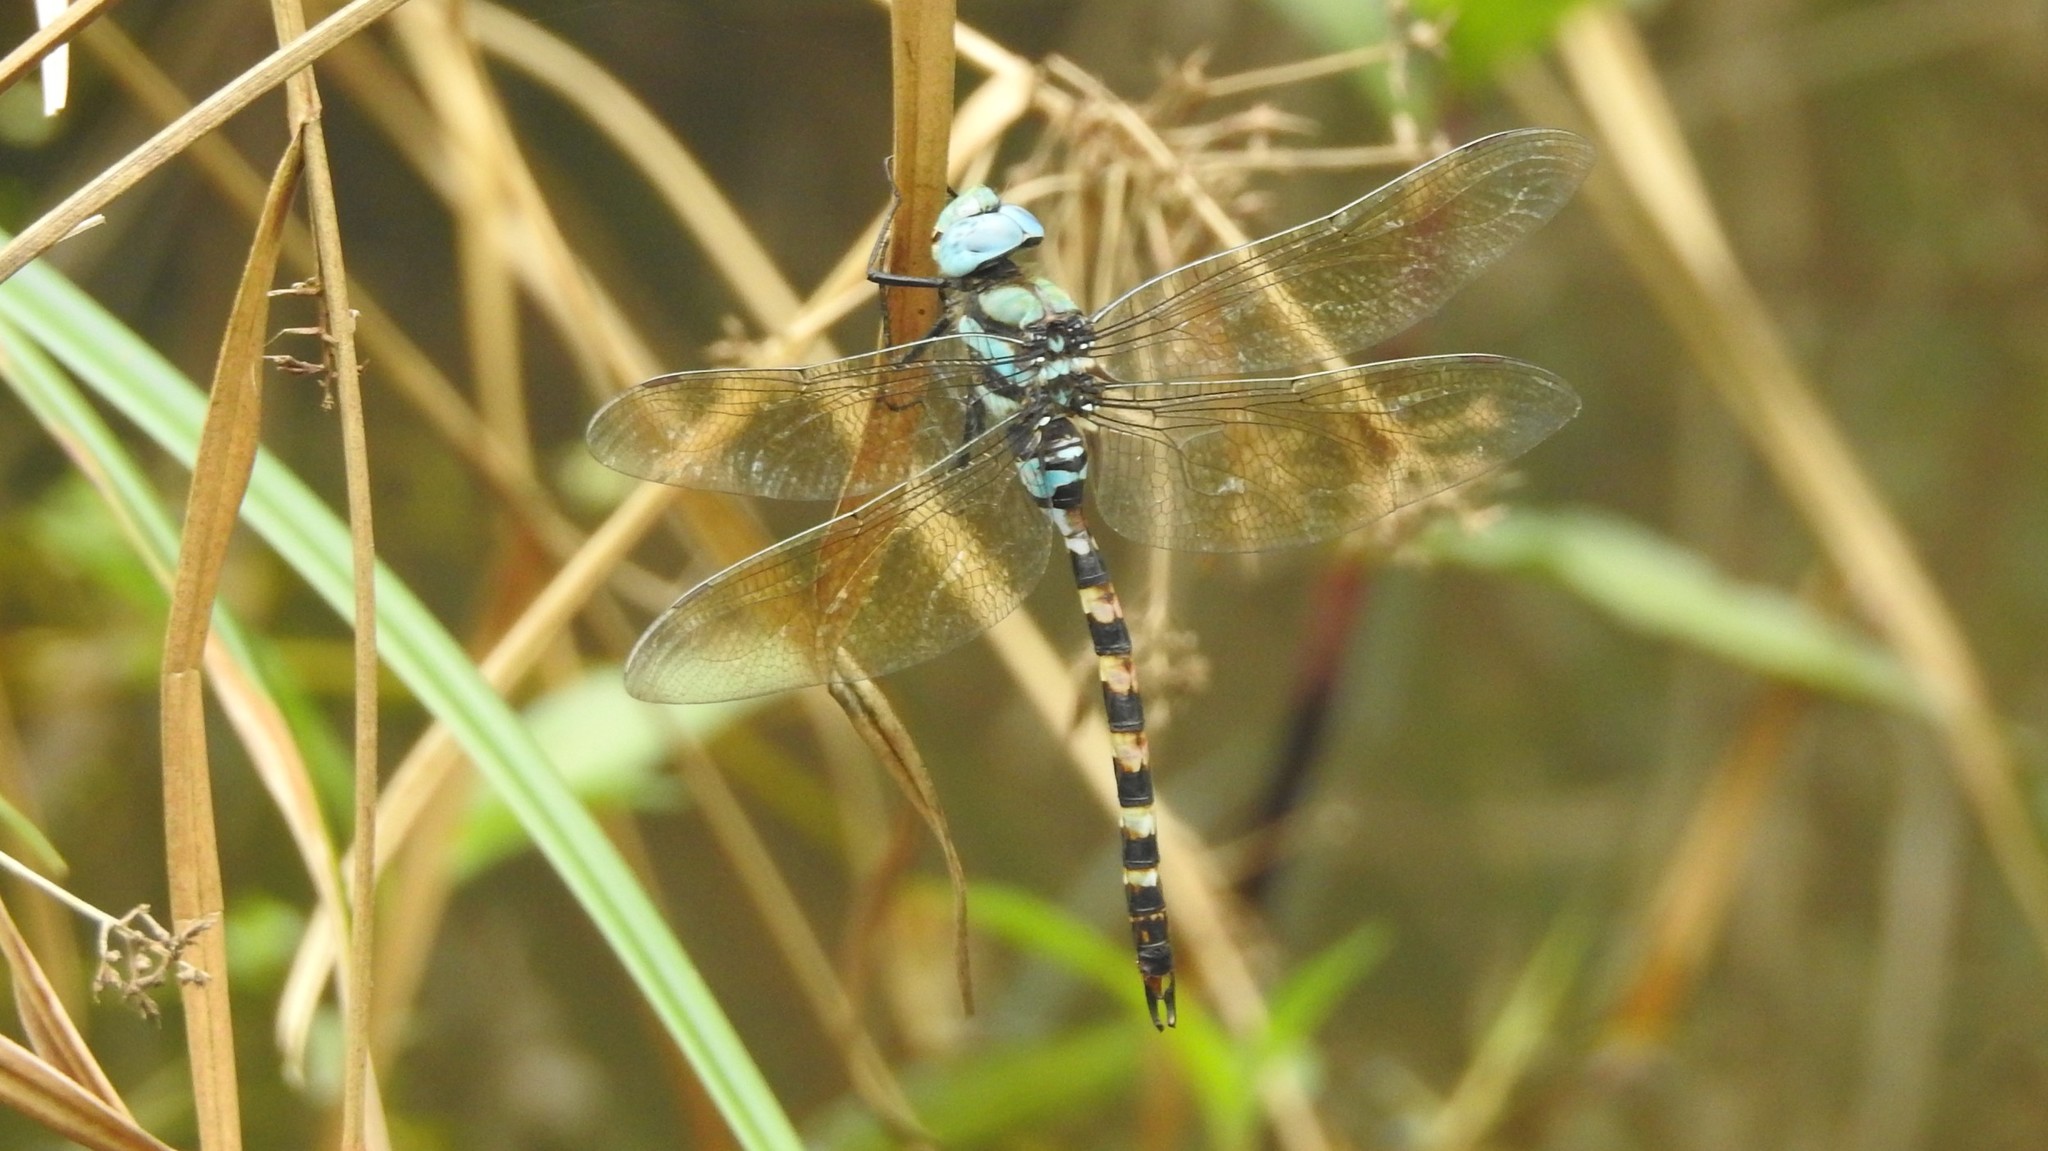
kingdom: Animalia
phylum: Arthropoda
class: Insecta
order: Odonata
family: Aeshnidae
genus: Anax
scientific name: Anax immaculifrons
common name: Magnificent emperor
